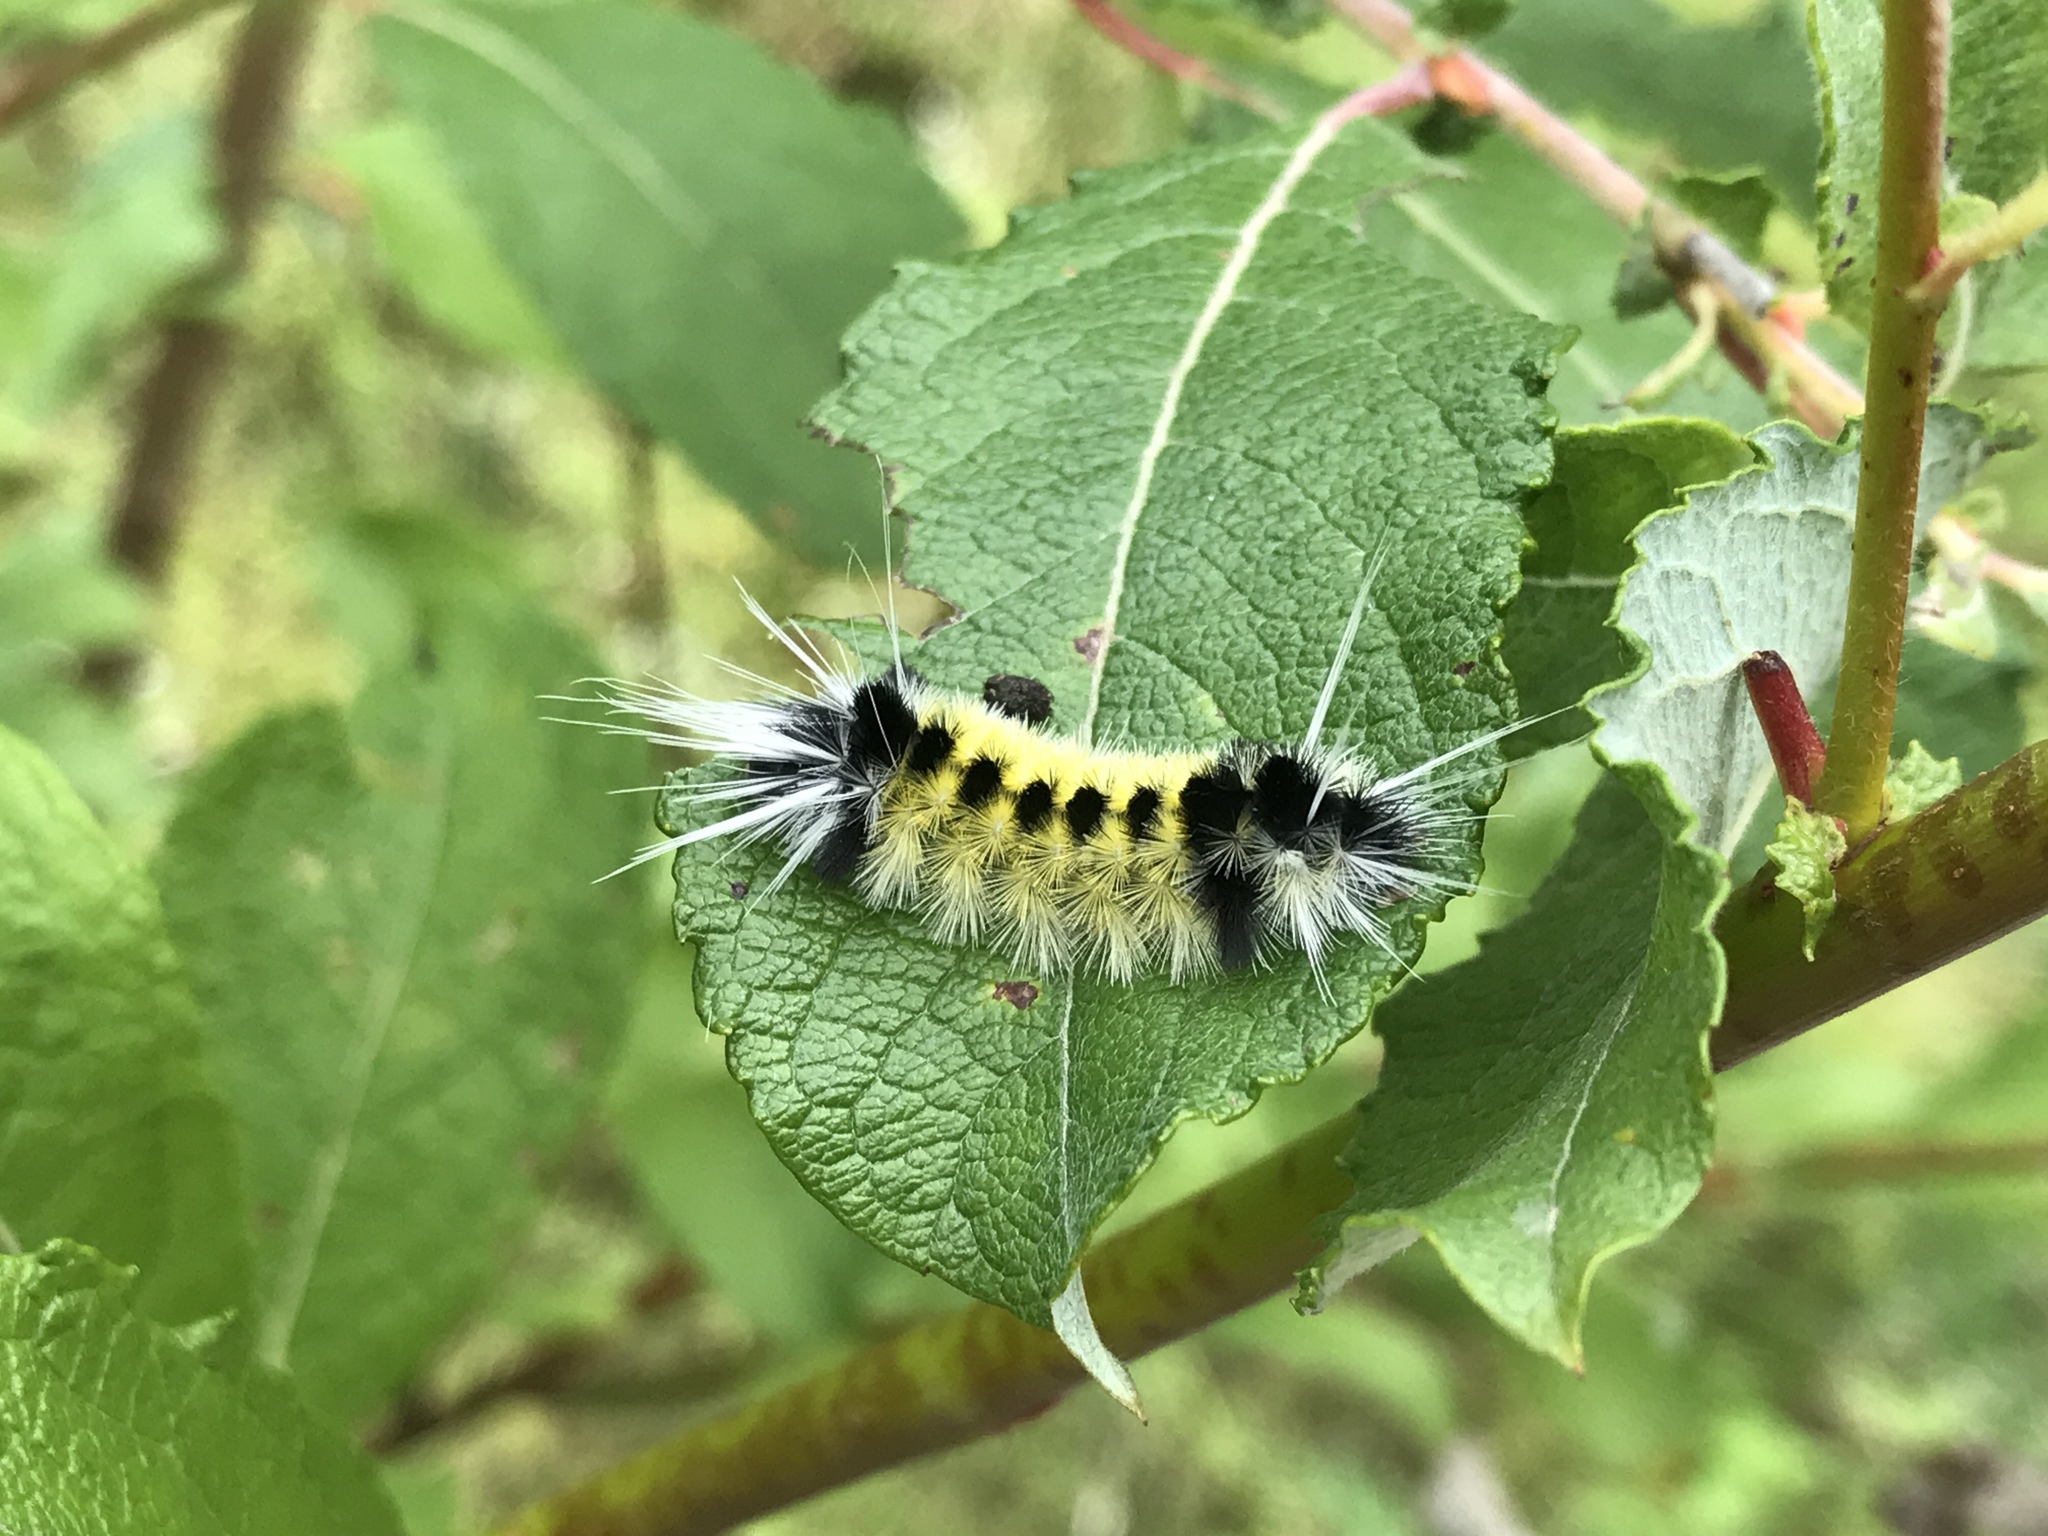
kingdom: Animalia
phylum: Arthropoda
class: Insecta
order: Lepidoptera
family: Erebidae
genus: Lophocampa
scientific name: Lophocampa maculata
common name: Spotted tussock moth
